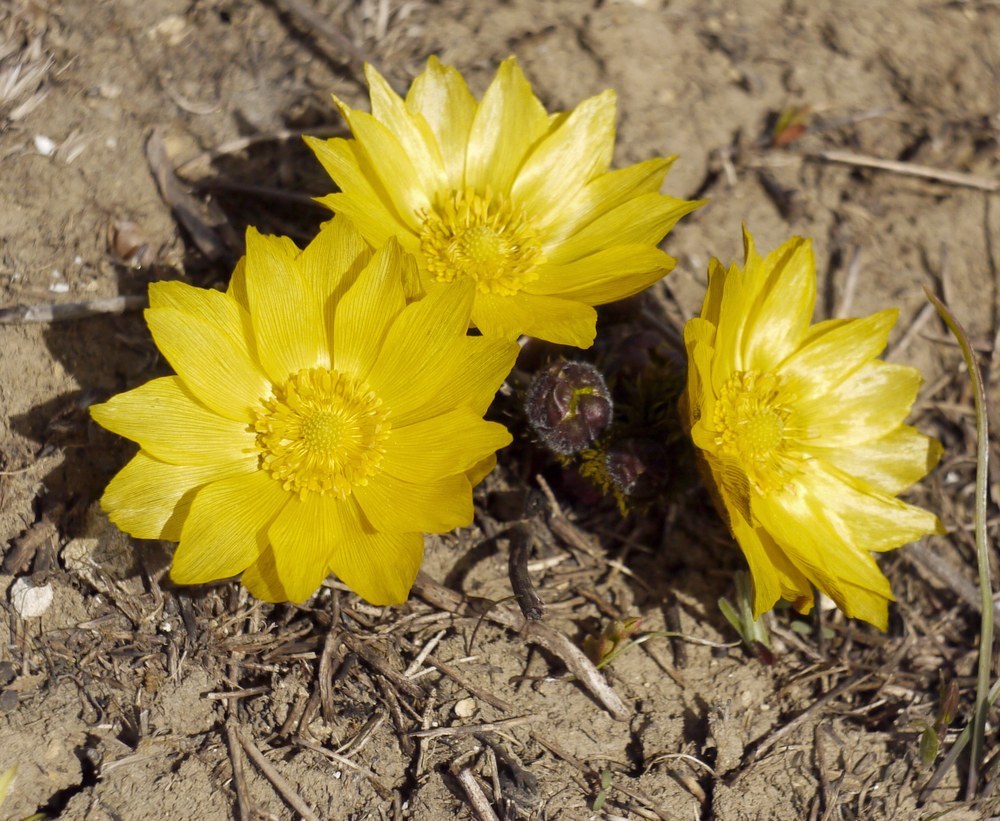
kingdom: Plantae
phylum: Tracheophyta
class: Magnoliopsida
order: Ranunculales
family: Ranunculaceae
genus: Adonis
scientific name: Adonis vernalis
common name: Yellow pheasants-eye
